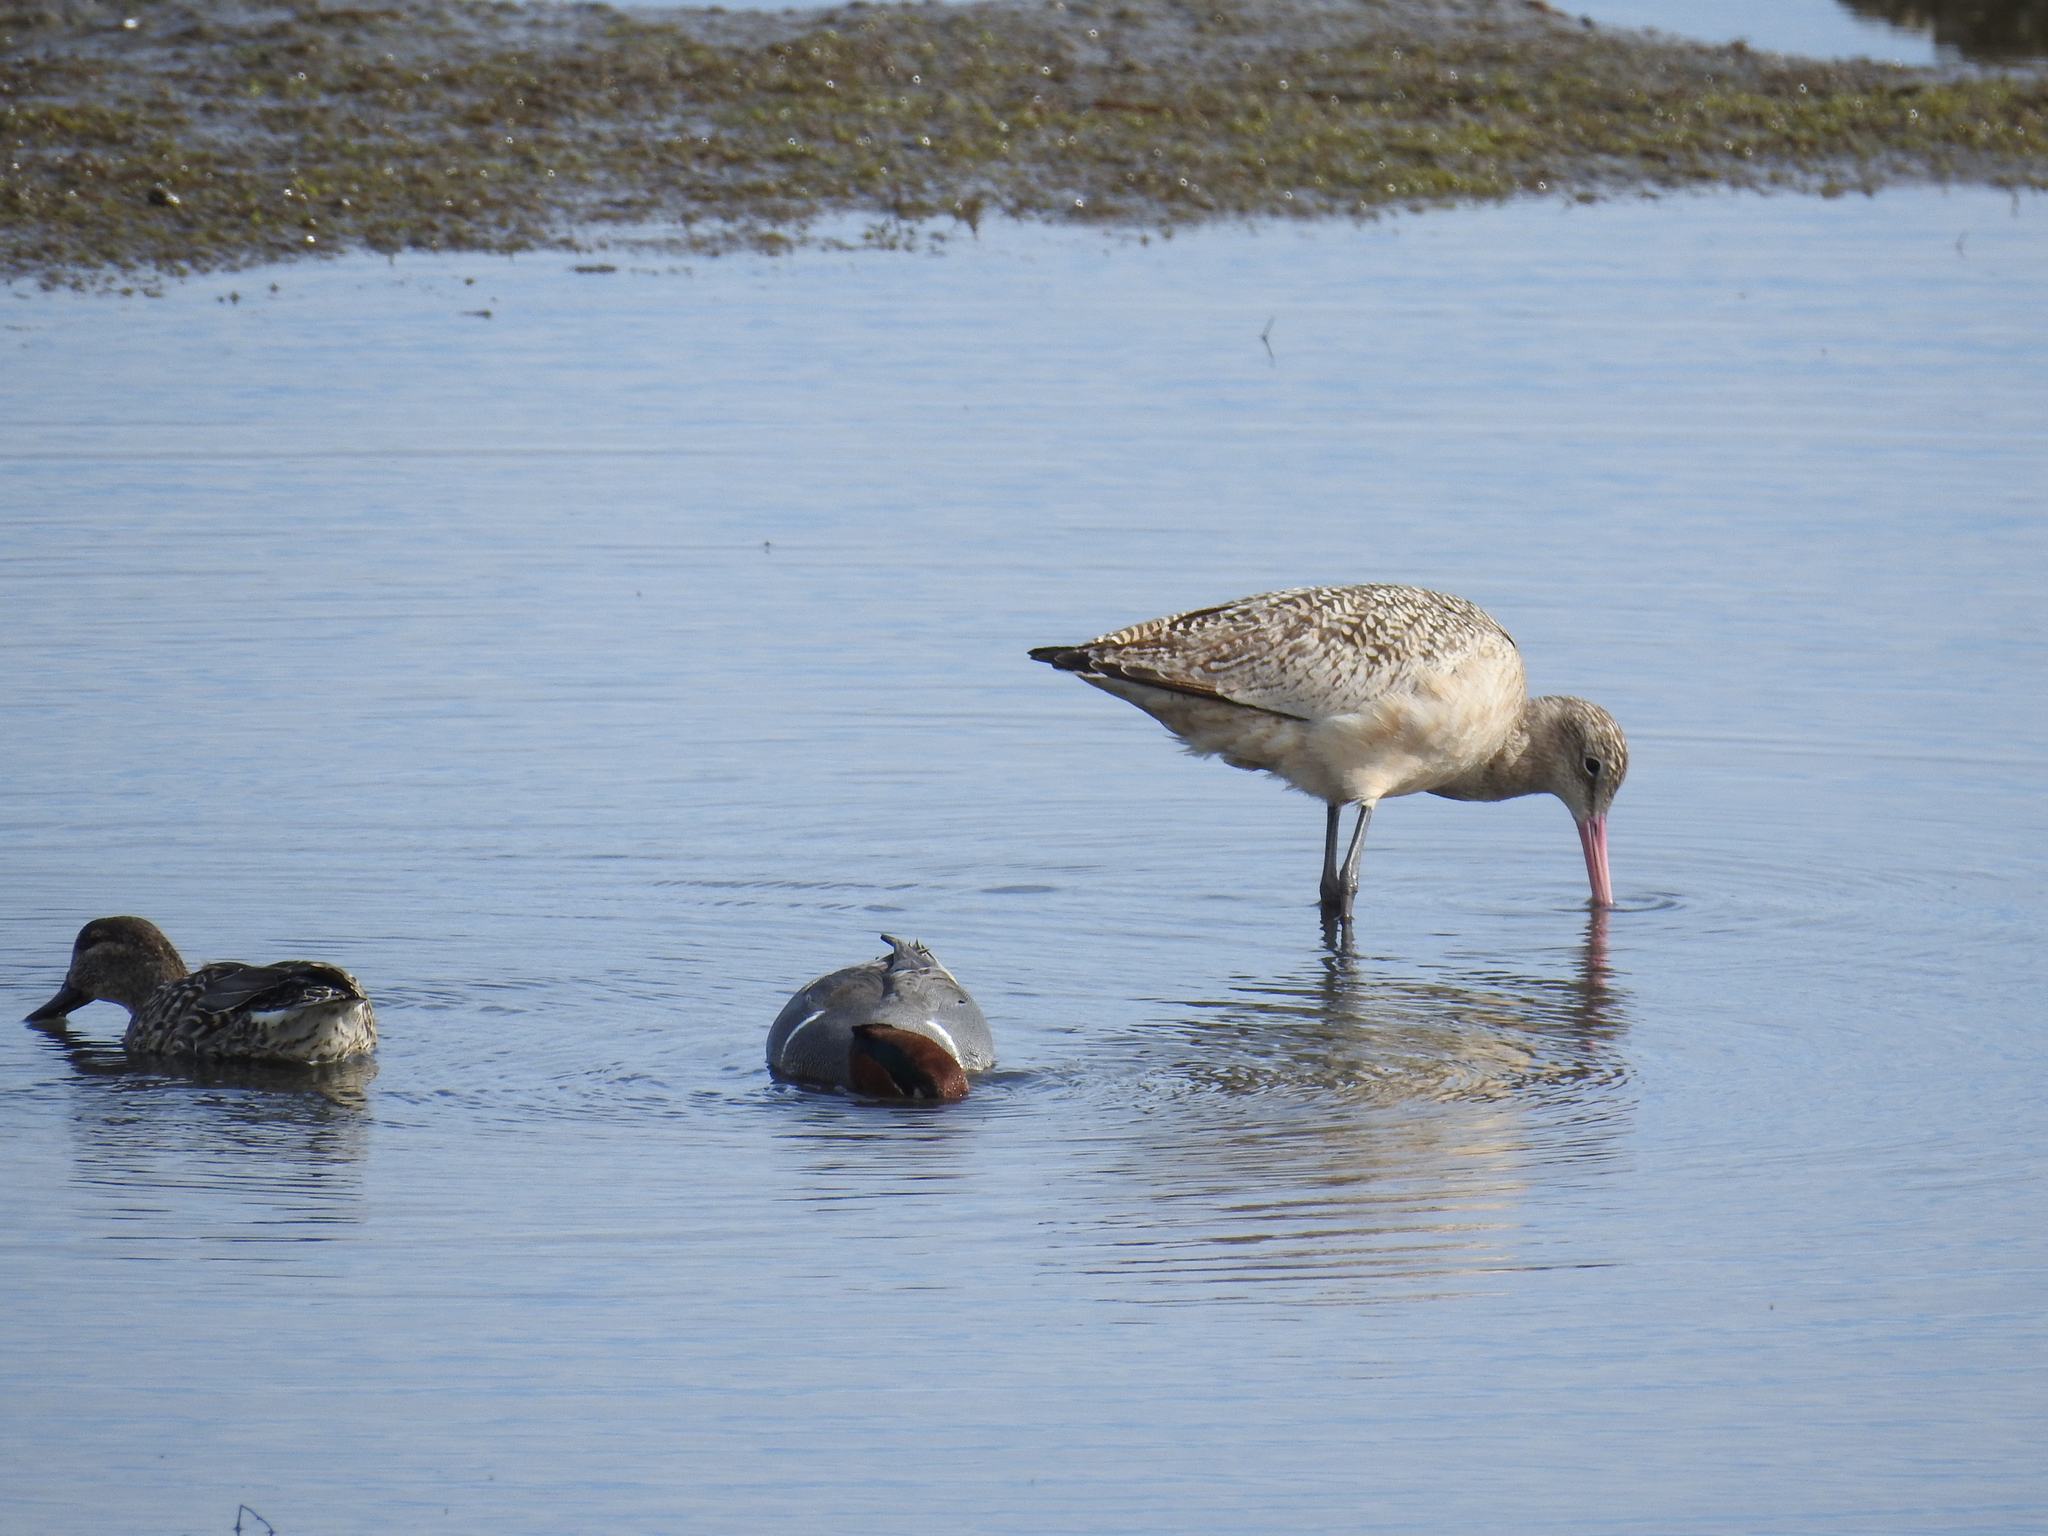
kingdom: Animalia
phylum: Chordata
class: Aves
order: Charadriiformes
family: Scolopacidae
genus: Limosa
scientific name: Limosa fedoa
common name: Marbled godwit
